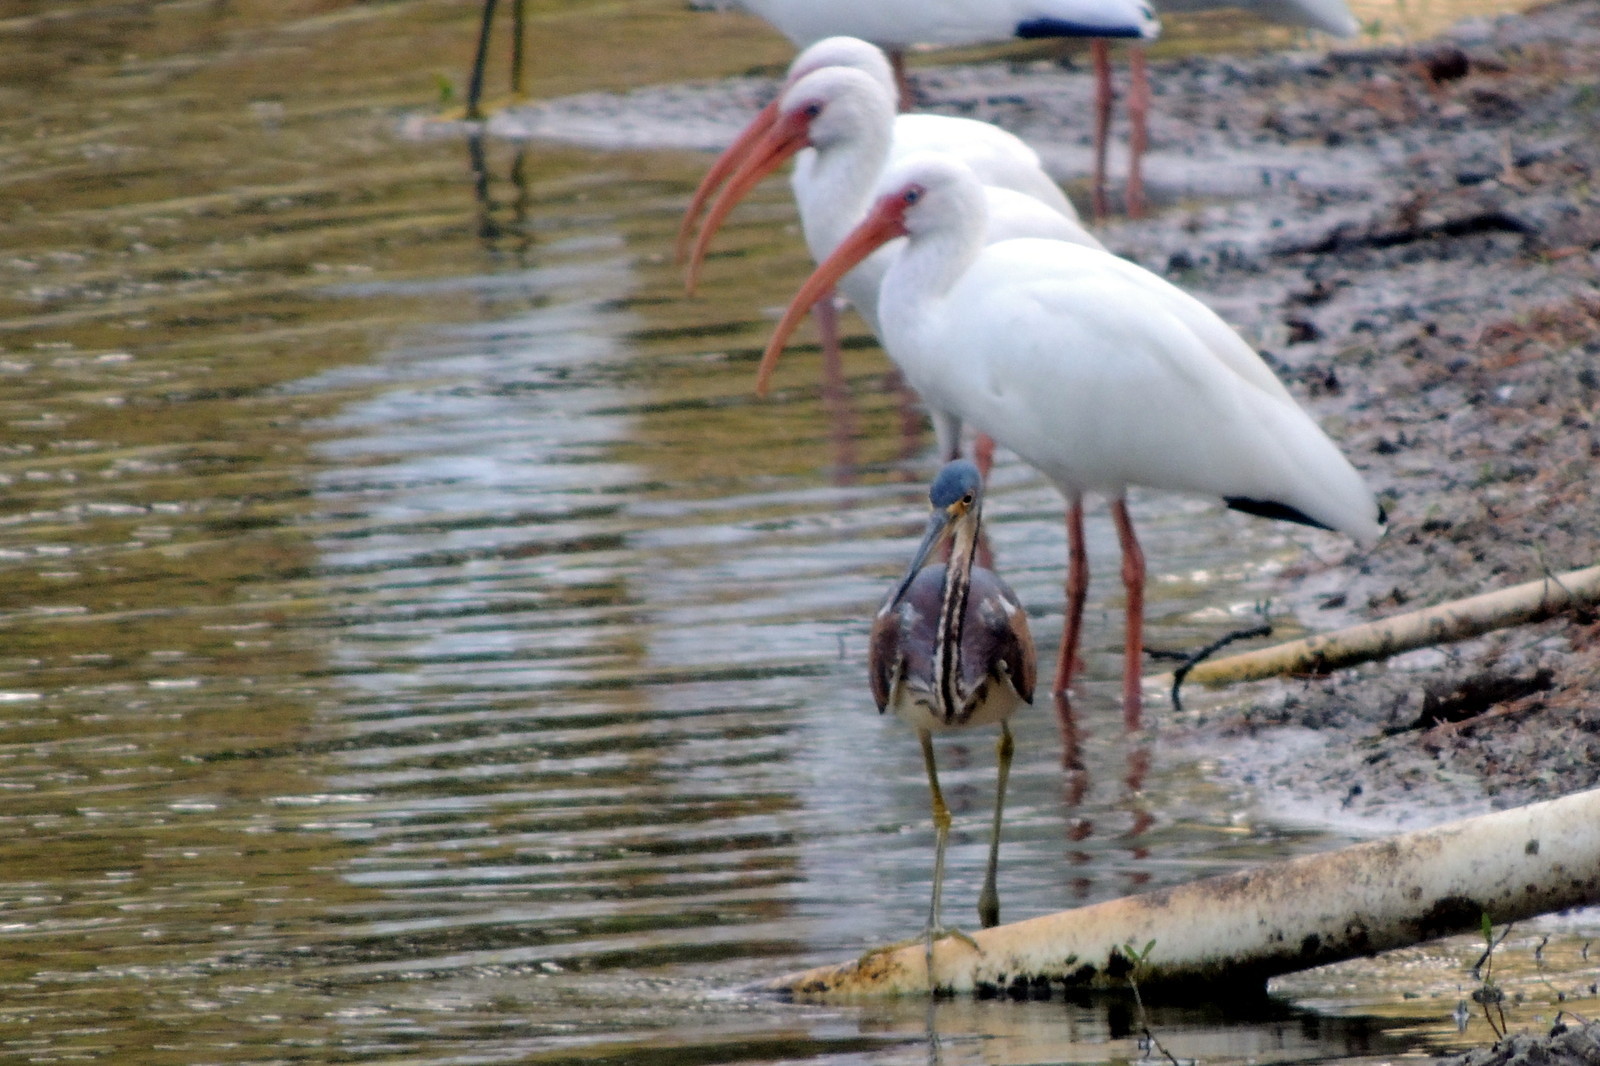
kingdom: Animalia
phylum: Chordata
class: Aves
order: Pelecaniformes
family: Threskiornithidae
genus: Eudocimus
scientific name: Eudocimus albus
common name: White ibis
